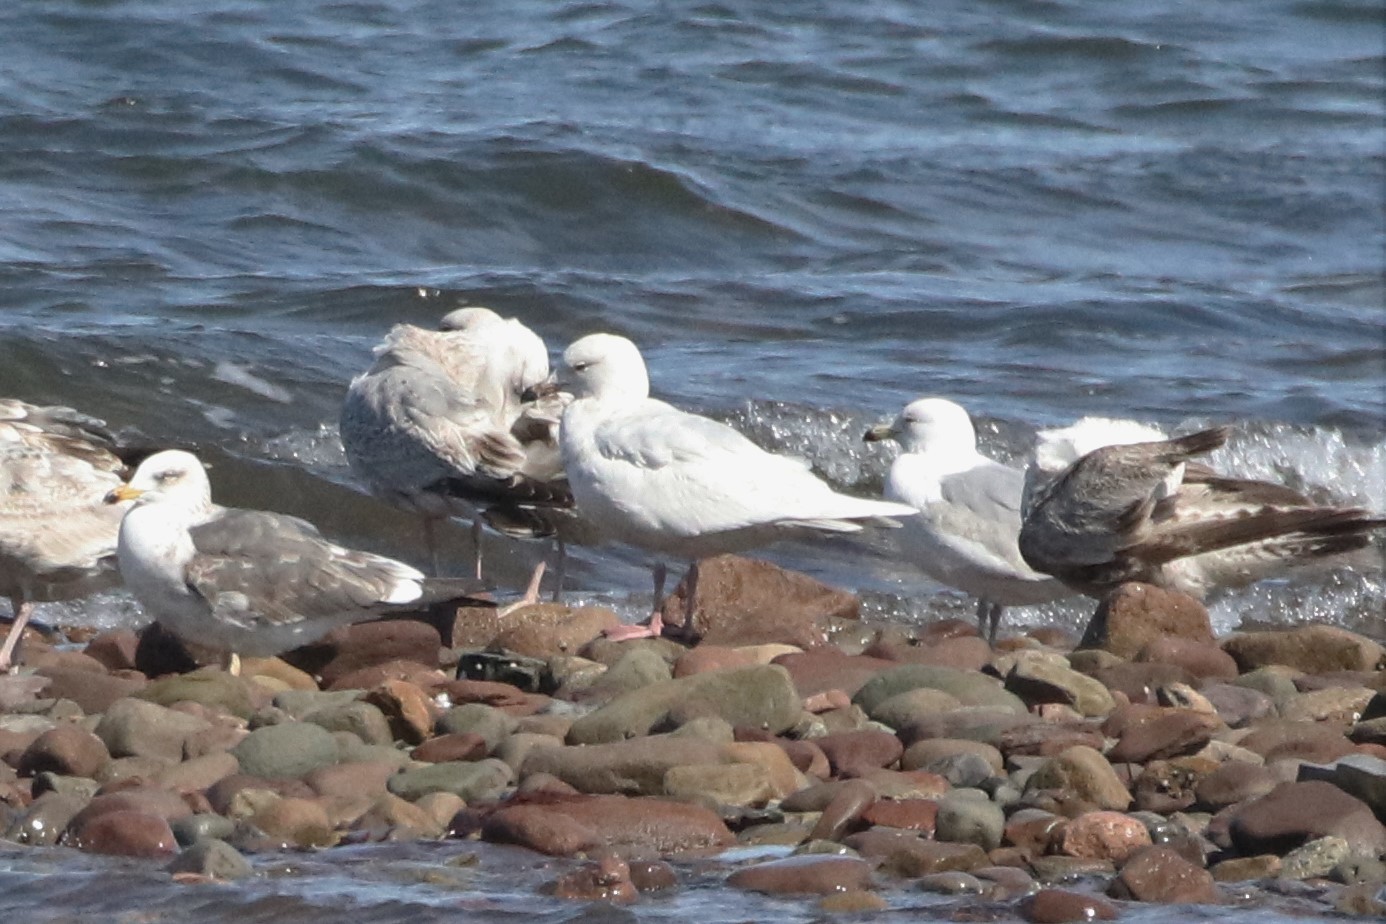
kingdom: Animalia
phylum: Chordata
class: Aves
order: Charadriiformes
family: Laridae
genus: Larus
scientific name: Larus glaucoides
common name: Iceland gull
